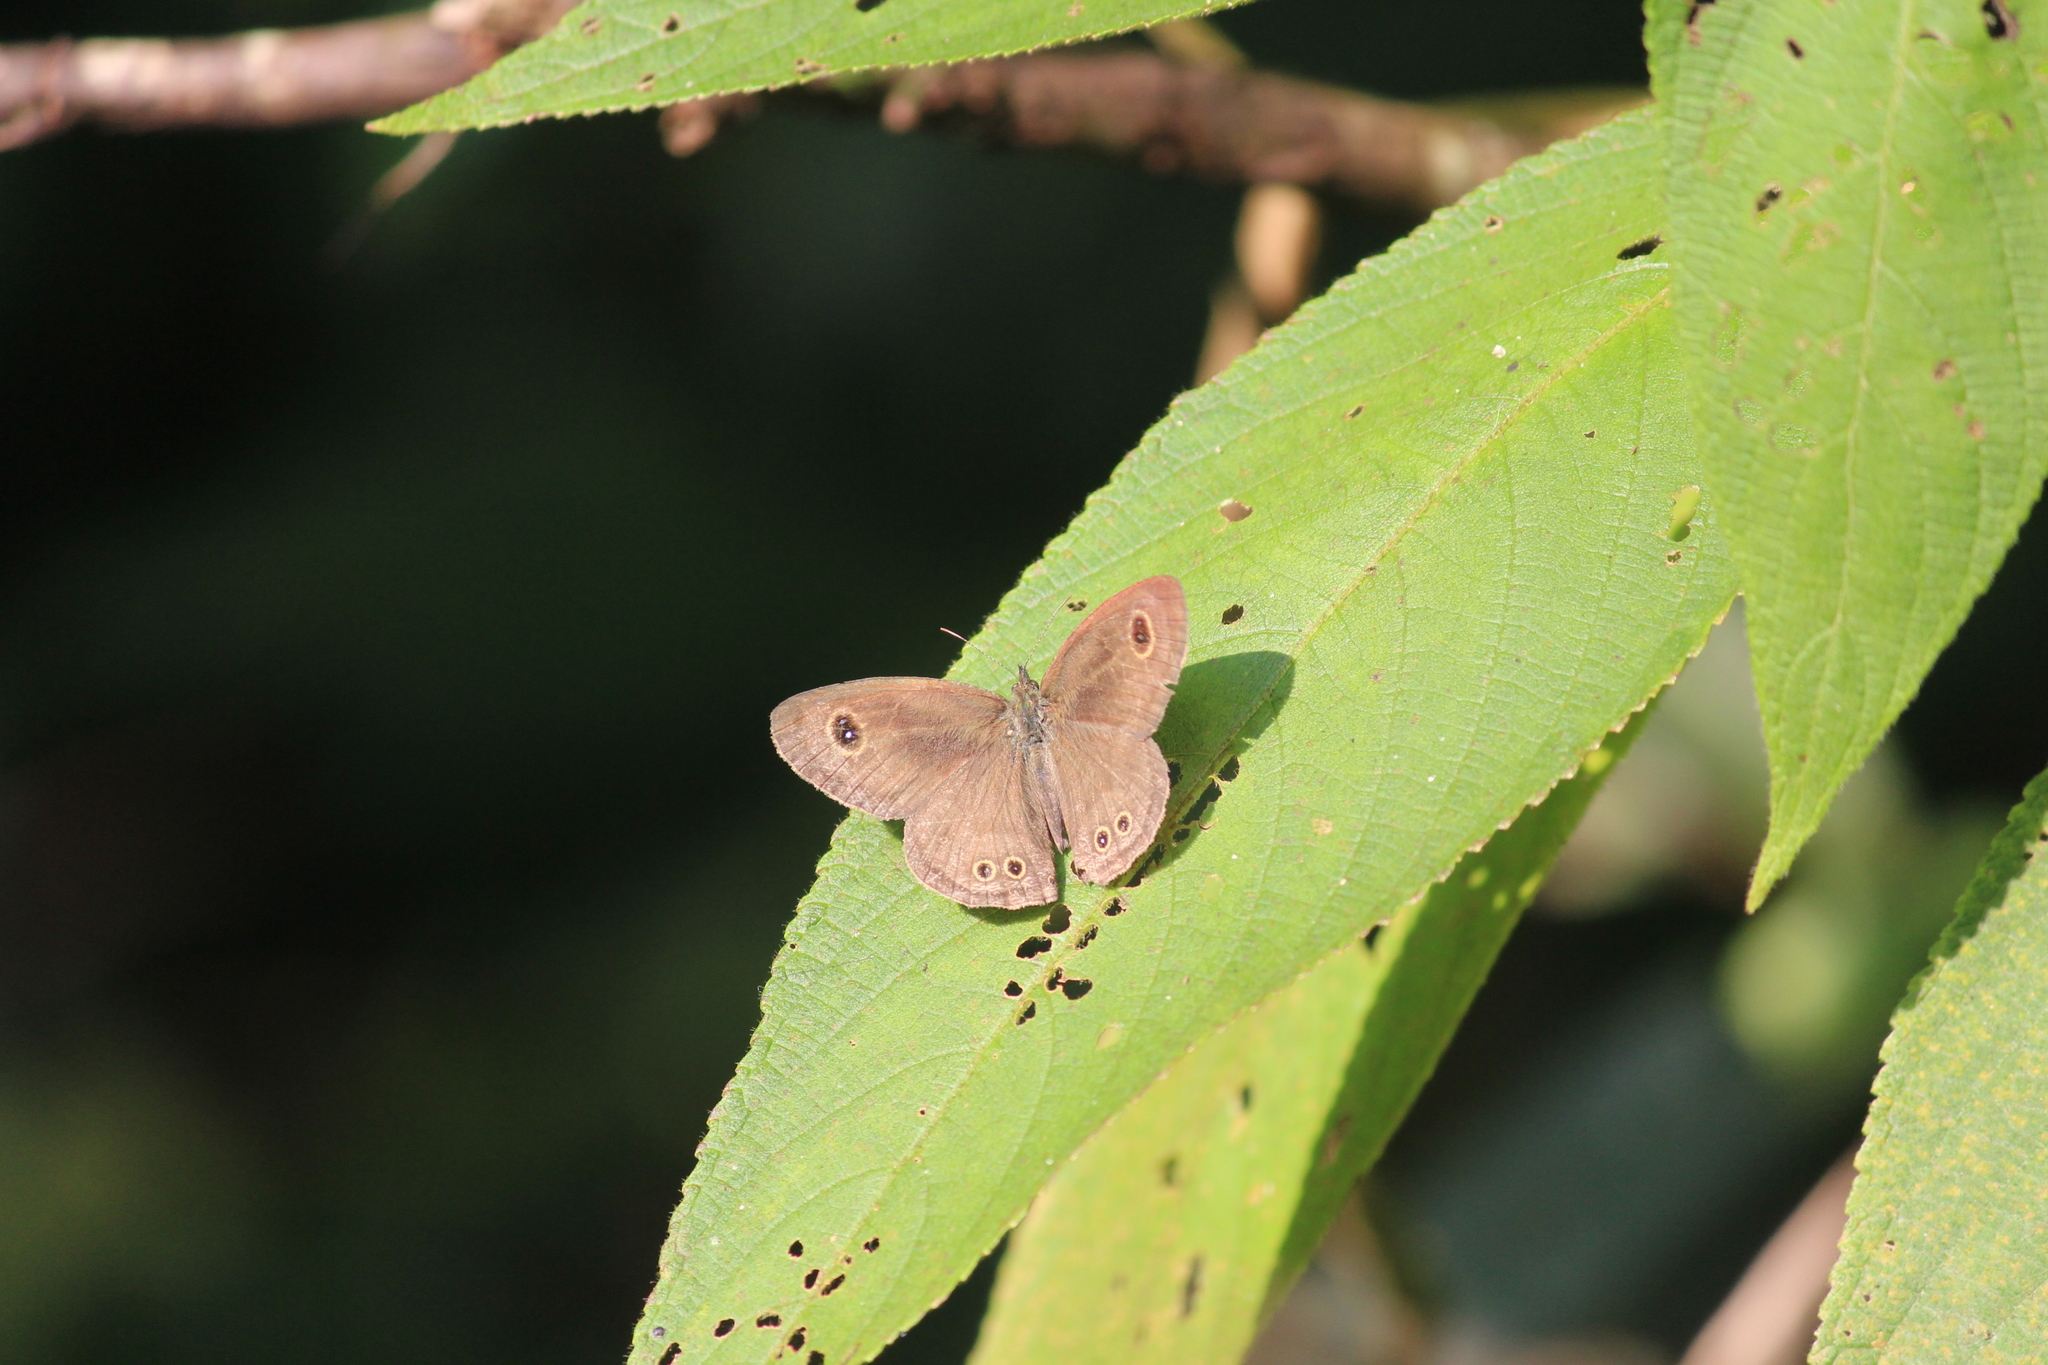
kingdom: Animalia
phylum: Arthropoda
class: Insecta
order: Lepidoptera
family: Nymphalidae
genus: Ypthima
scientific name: Ypthima baldus
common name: Common five-ring
